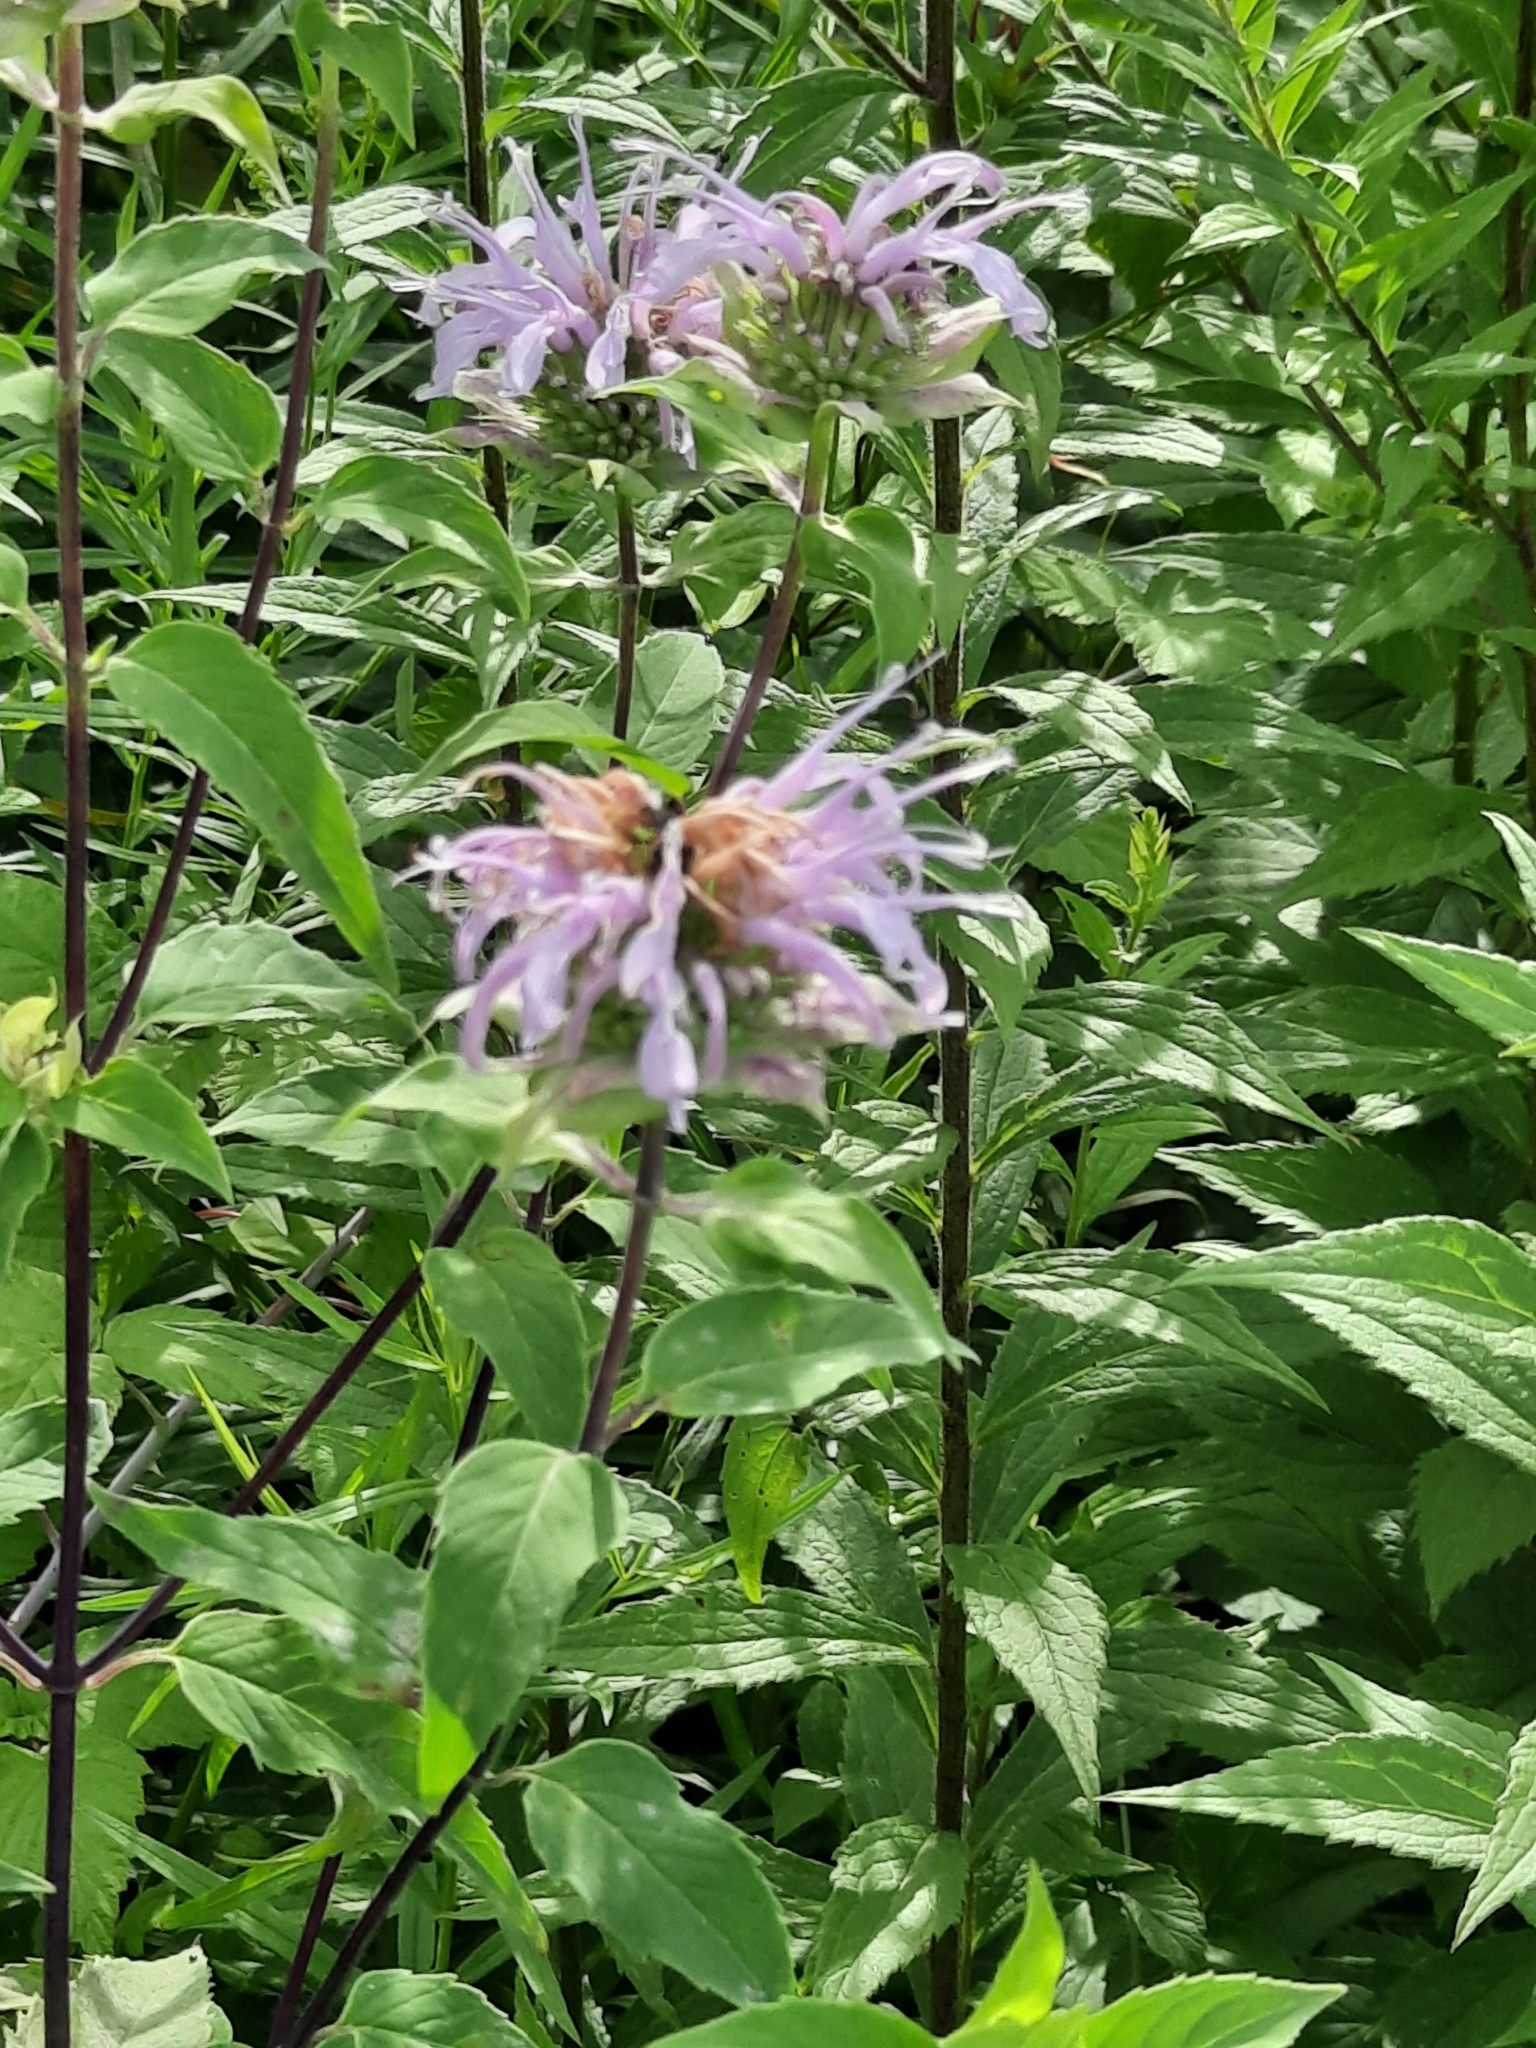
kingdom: Plantae
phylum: Tracheophyta
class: Magnoliopsida
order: Lamiales
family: Lamiaceae
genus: Monarda
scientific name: Monarda fistulosa
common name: Purple beebalm
